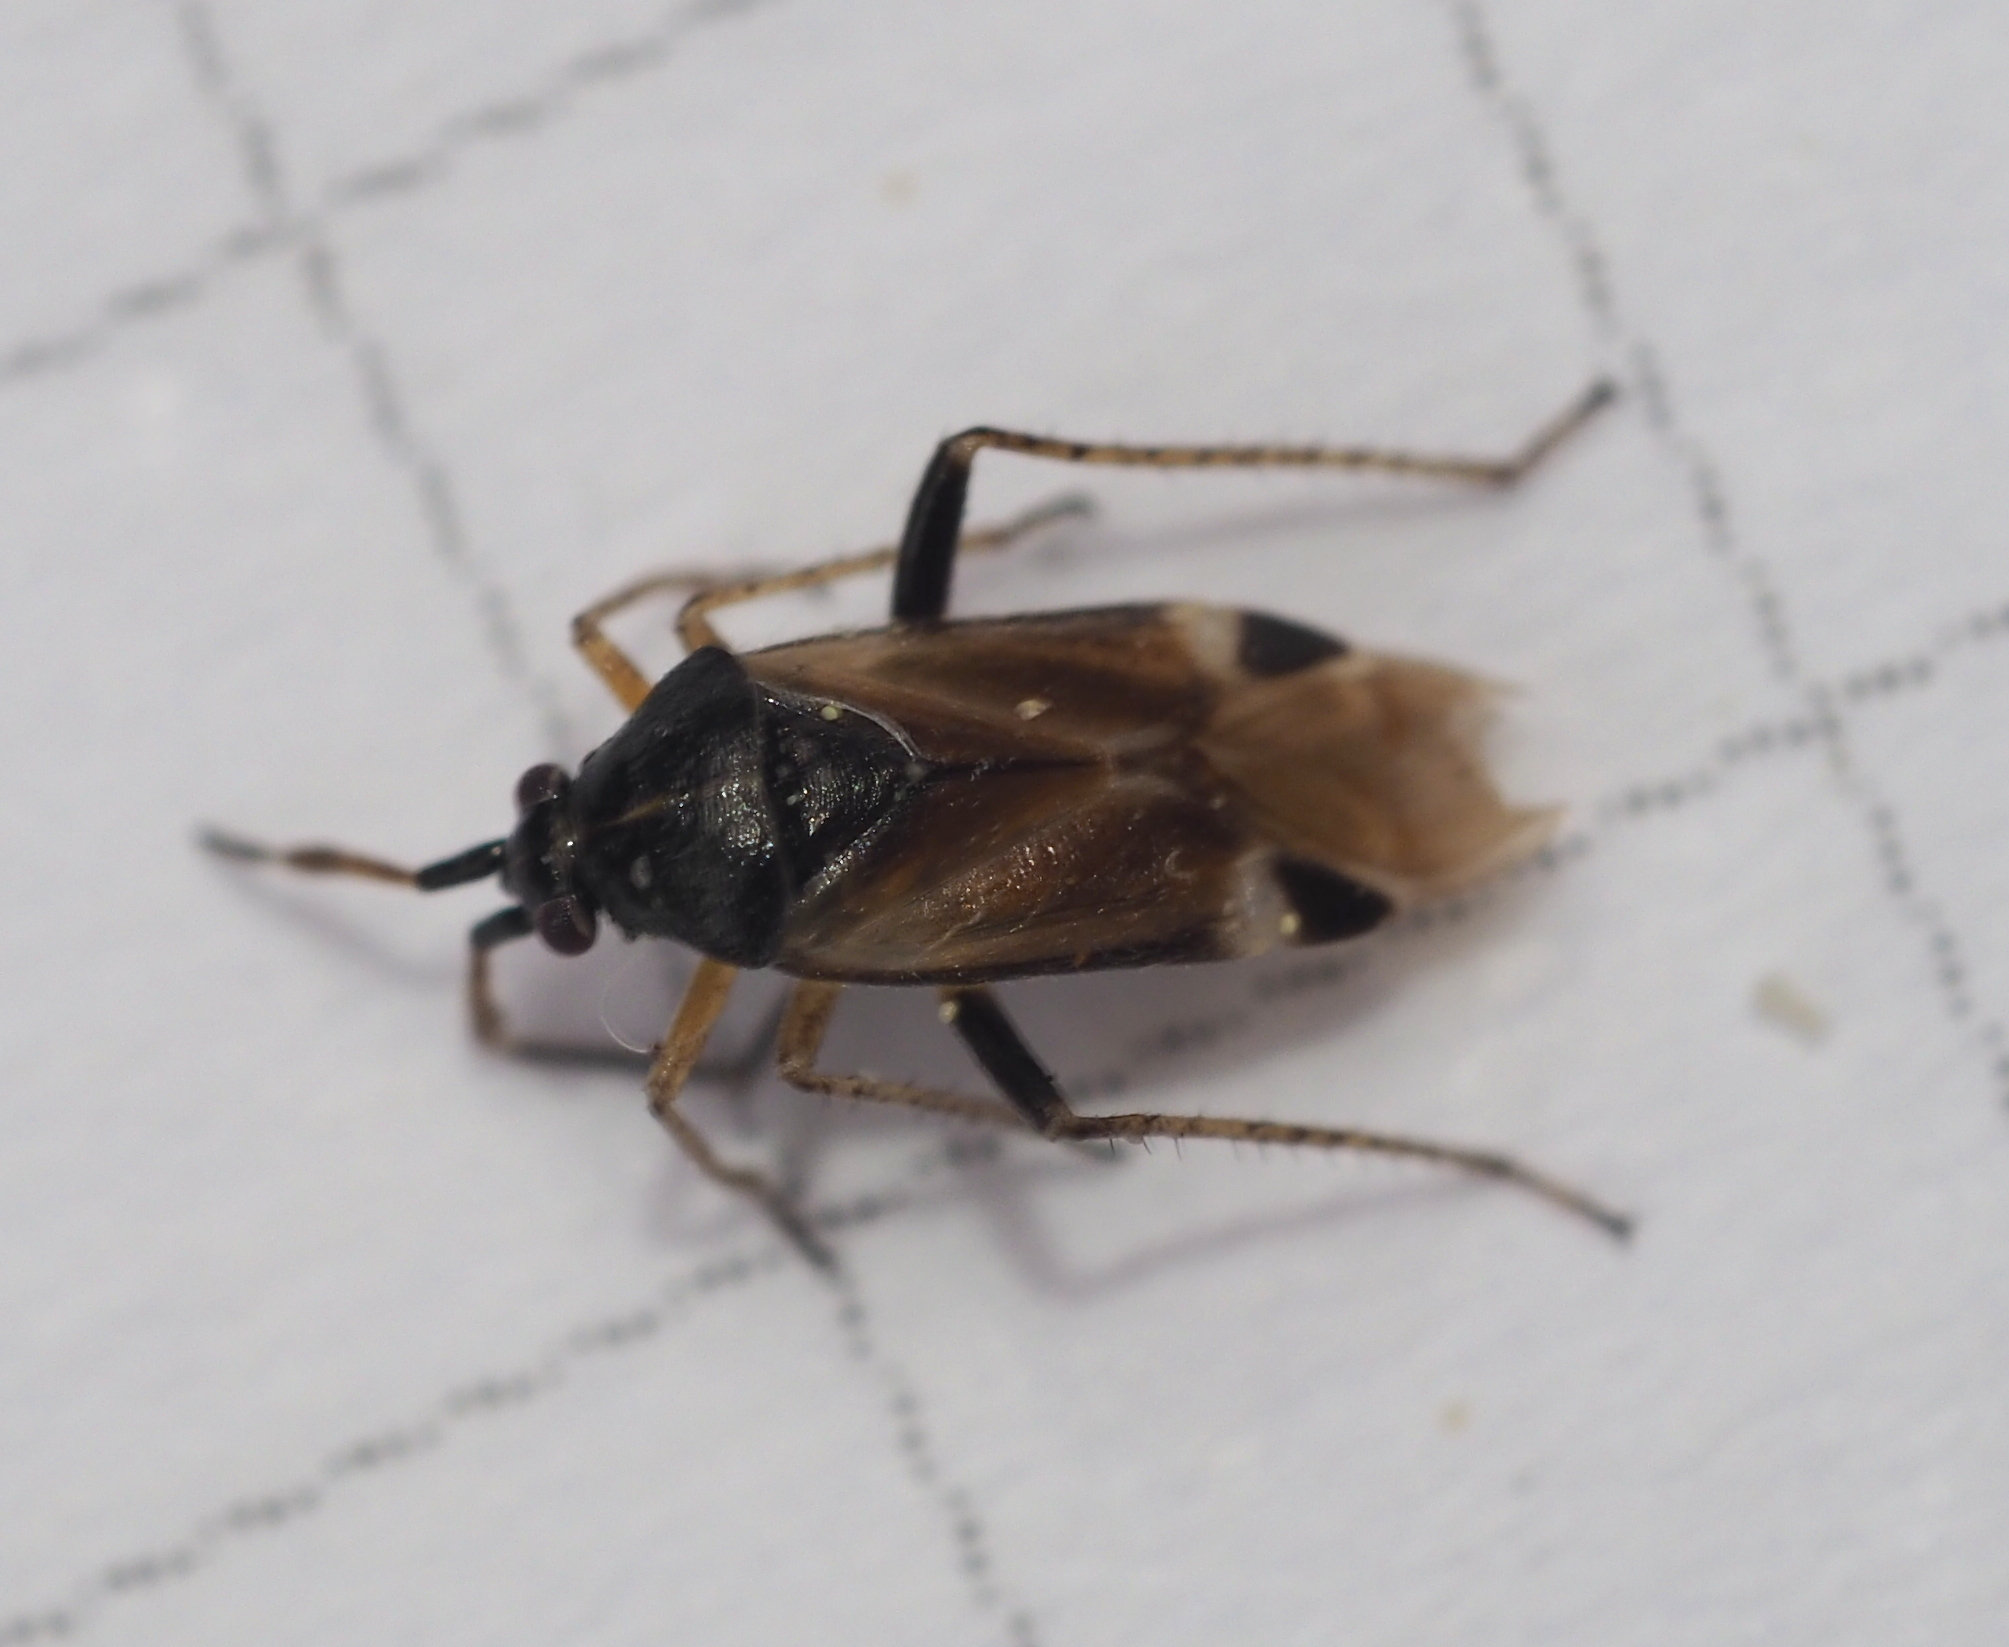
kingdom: Animalia
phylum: Arthropoda
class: Insecta
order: Hemiptera
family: Miridae
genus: Harpocera
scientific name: Harpocera hellenica
